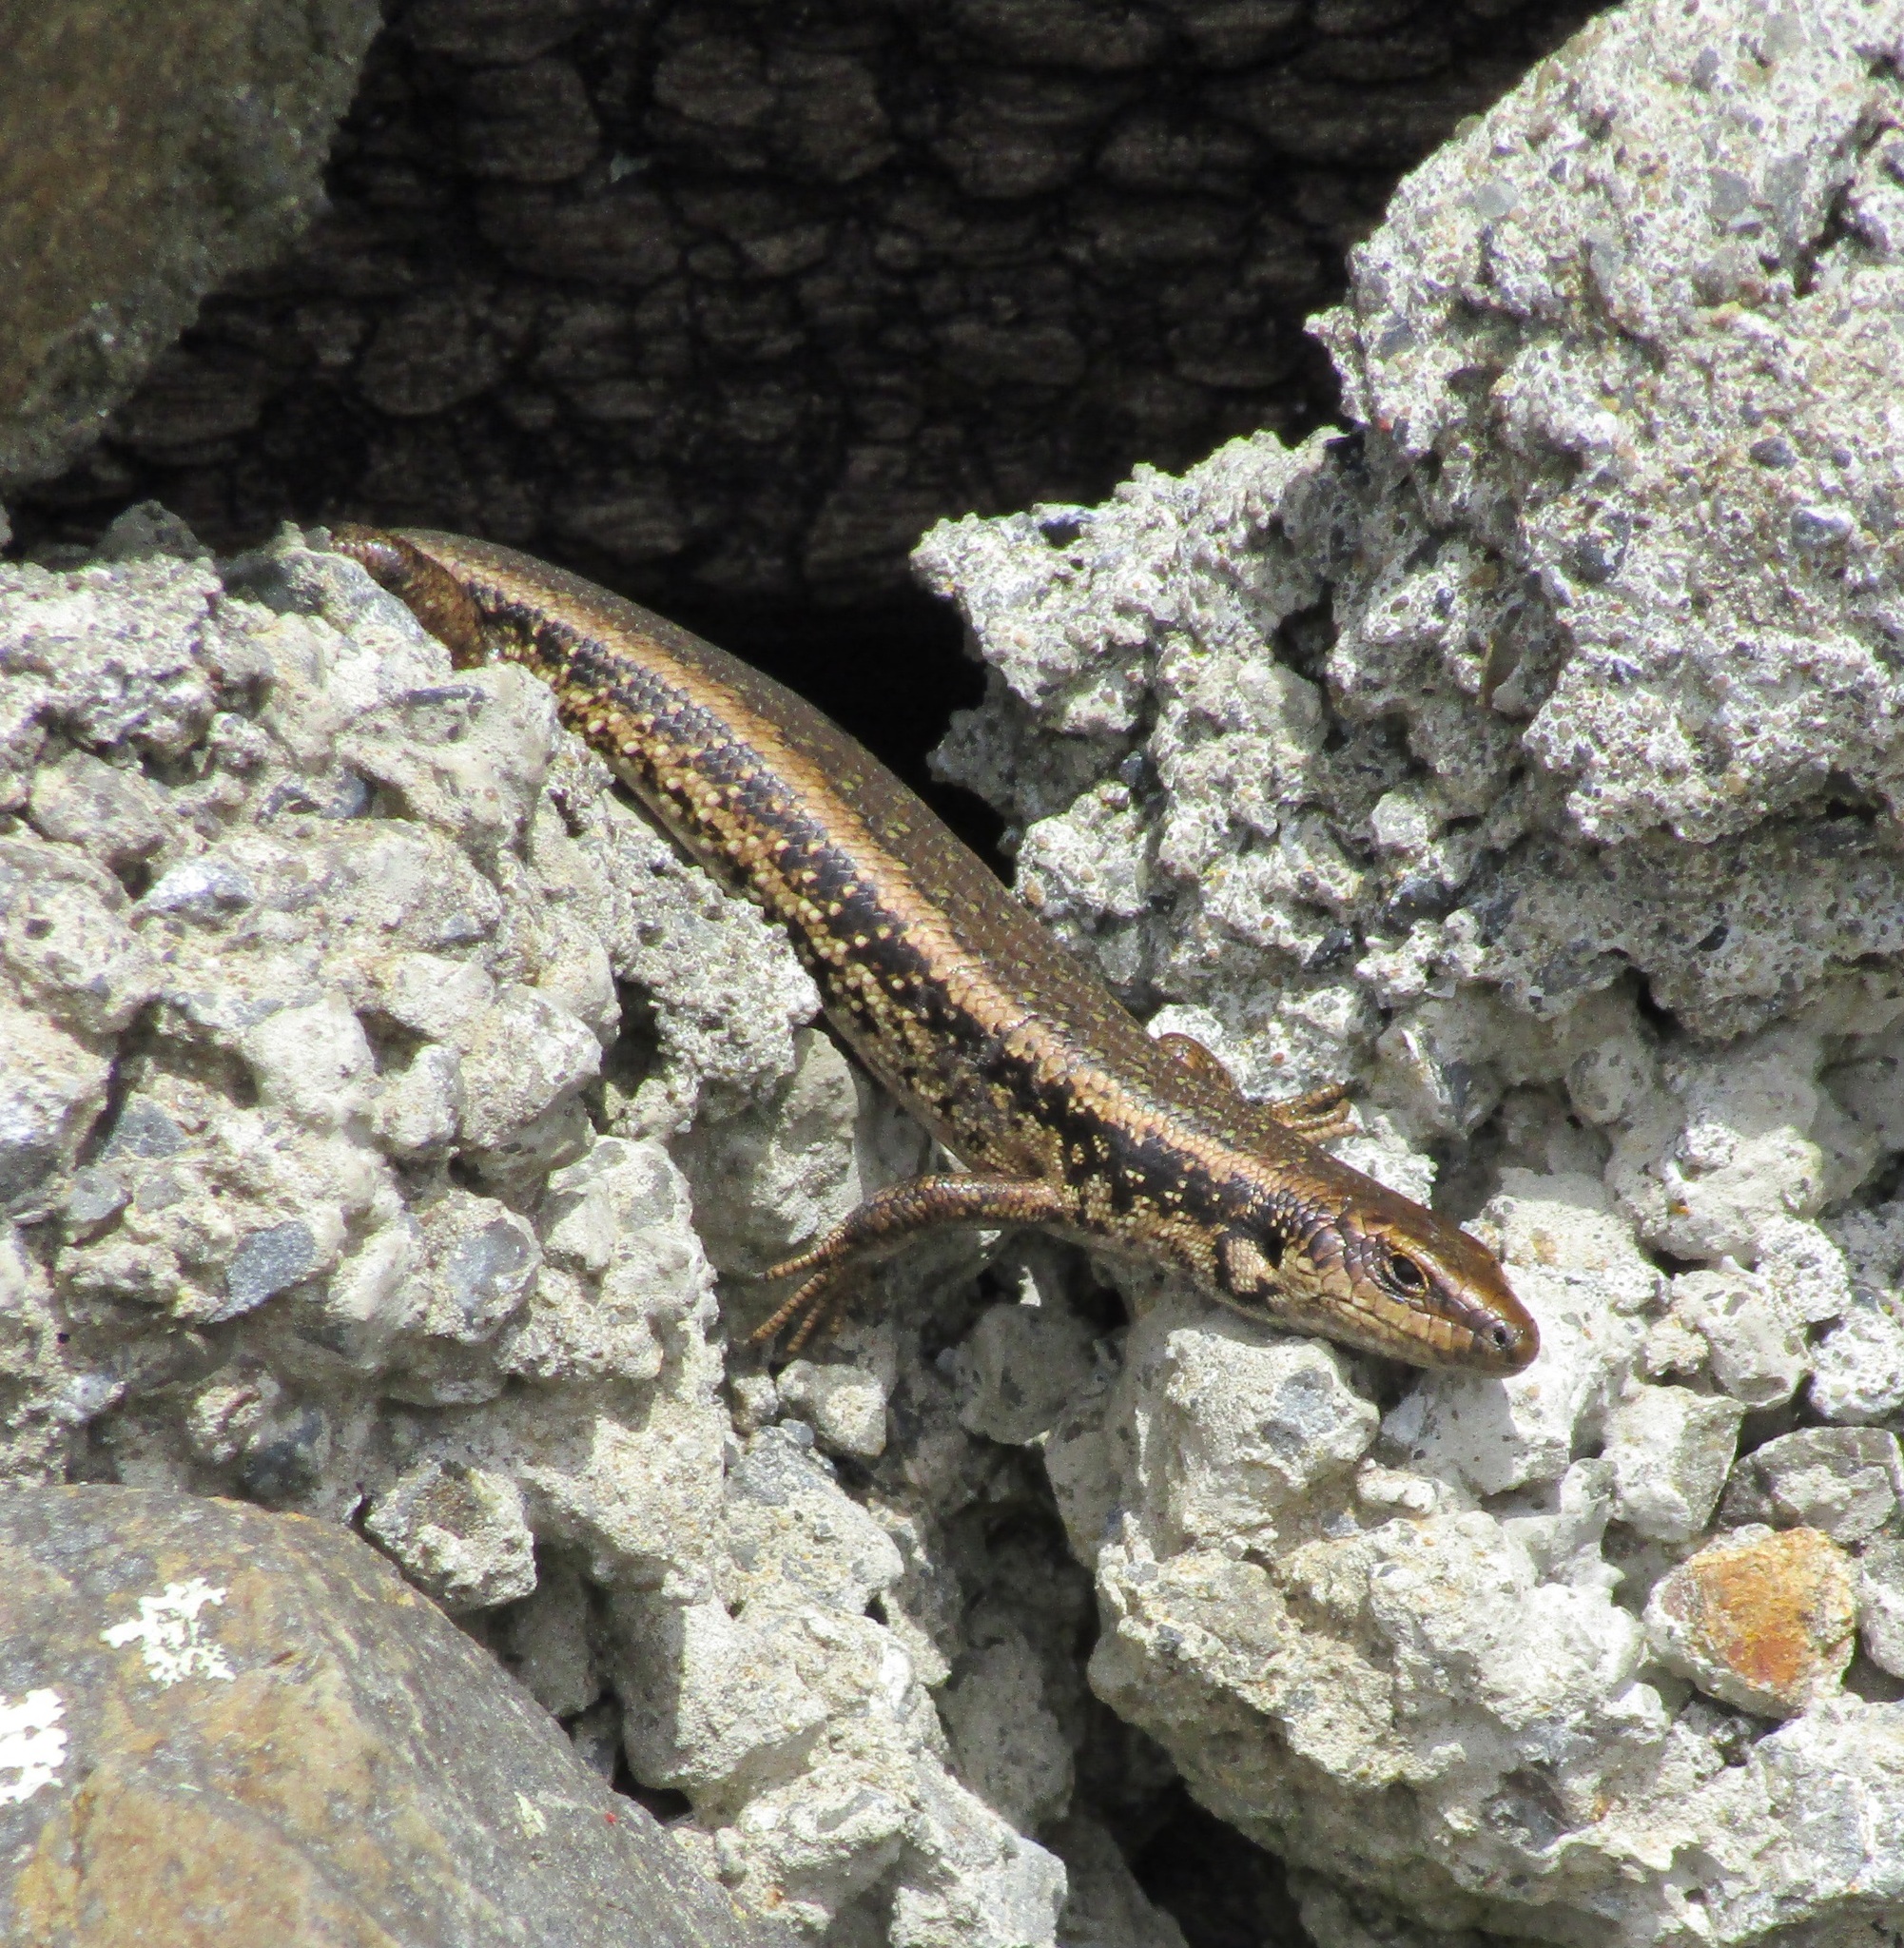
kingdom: Animalia
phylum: Chordata
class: Squamata
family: Scincidae
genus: Oligosoma
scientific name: Oligosoma kokowai
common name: Northern spotted skink
